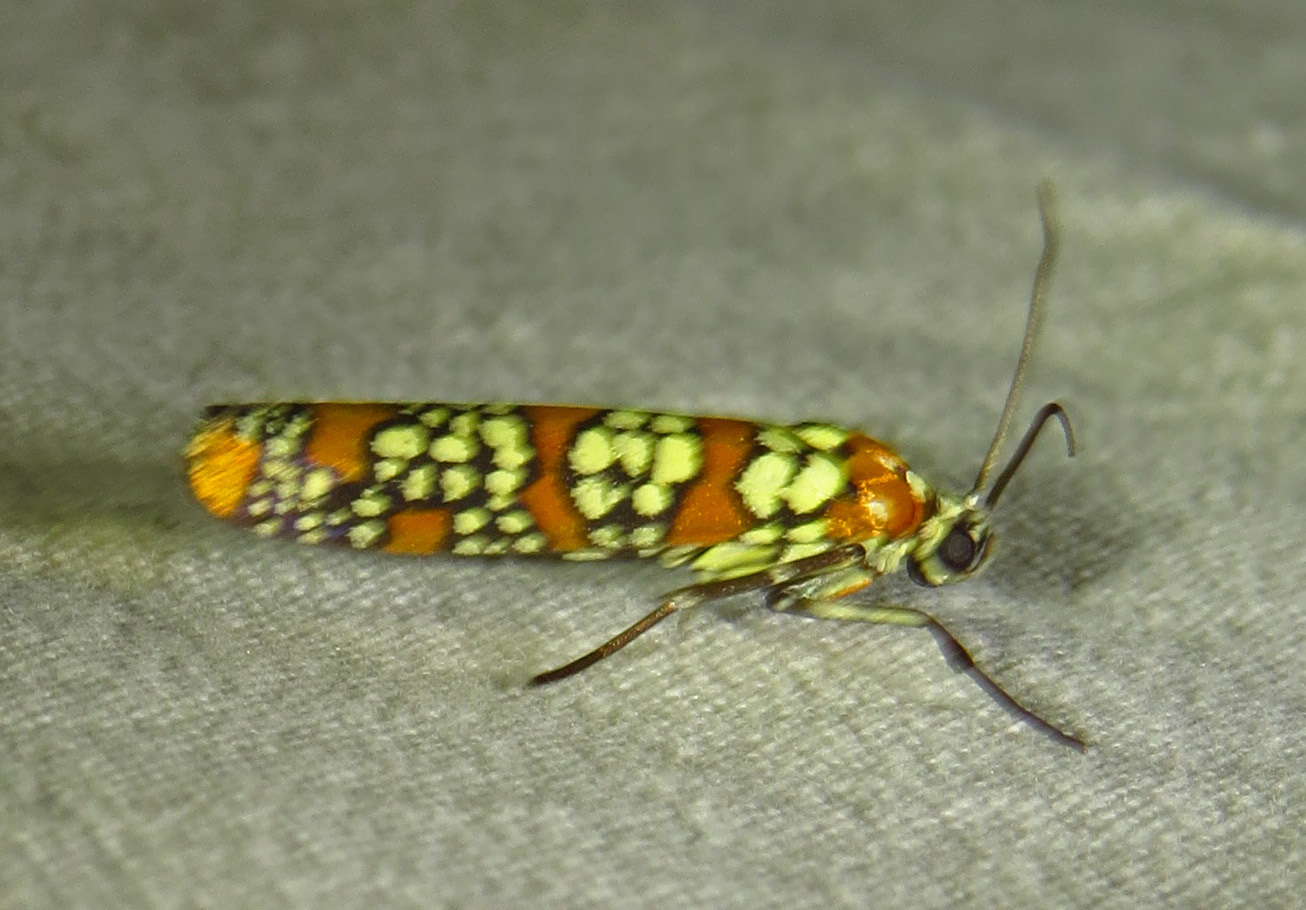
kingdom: Animalia
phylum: Arthropoda
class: Insecta
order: Lepidoptera
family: Attevidae
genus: Atteva
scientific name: Atteva punctella
